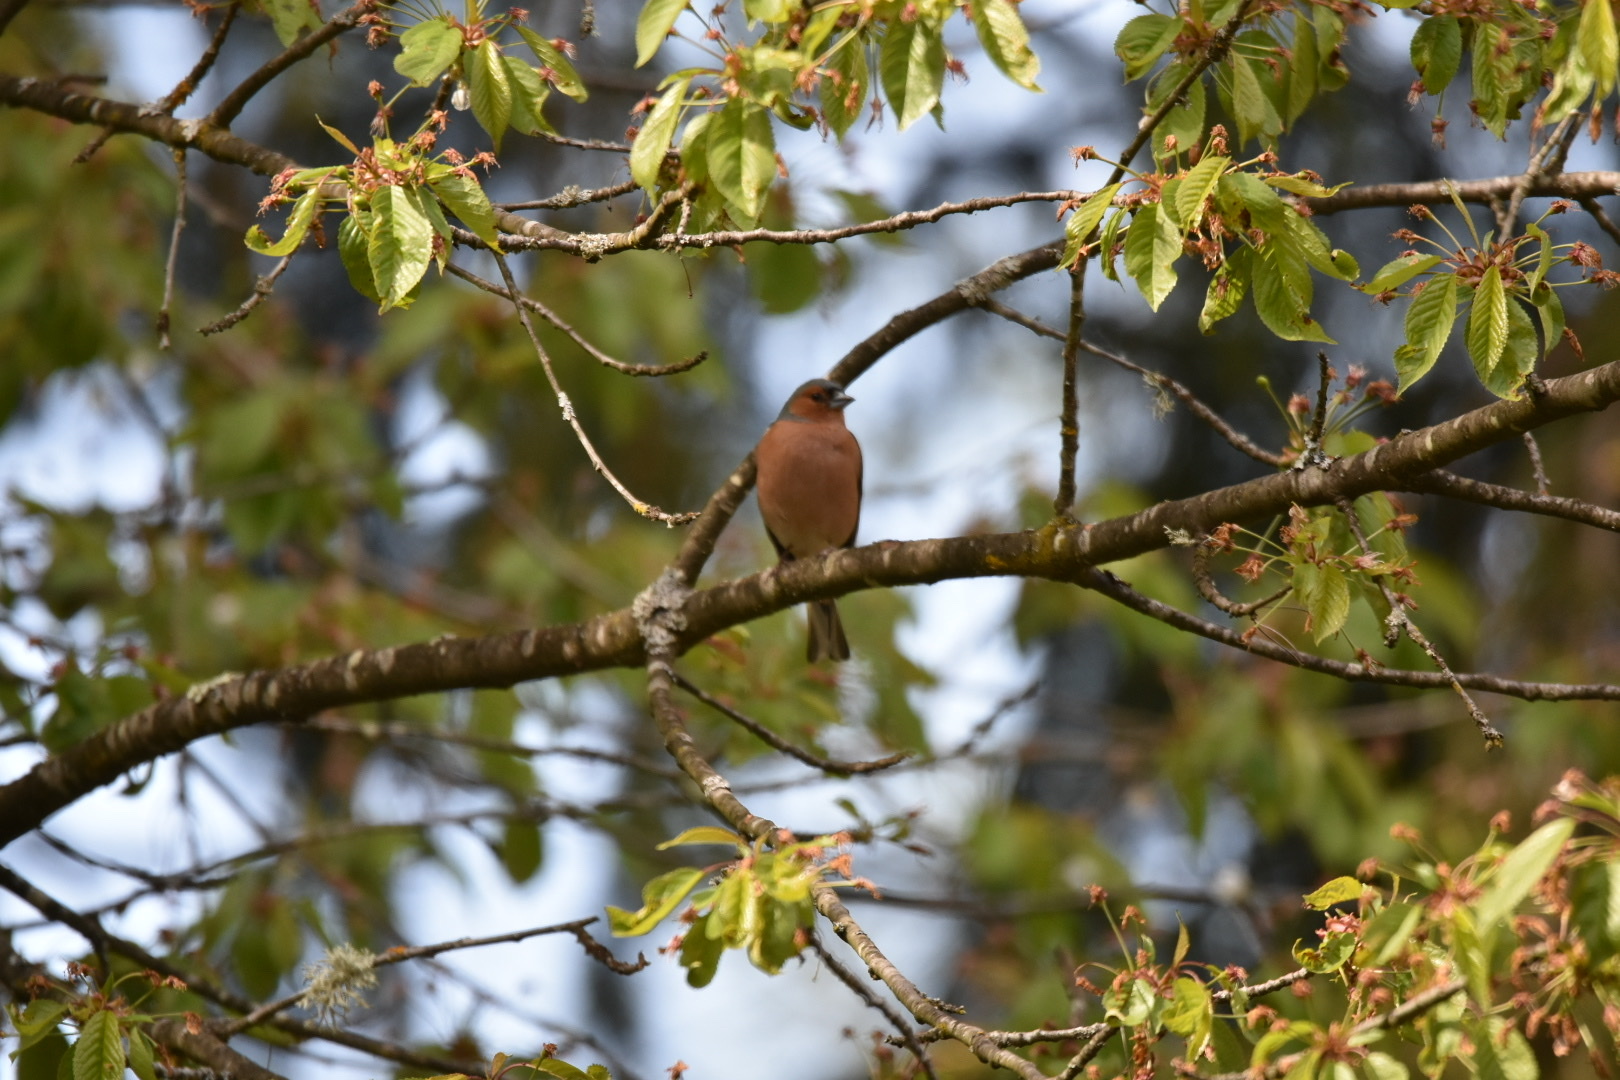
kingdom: Animalia
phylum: Chordata
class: Aves
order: Passeriformes
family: Fringillidae
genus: Fringilla
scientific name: Fringilla coelebs
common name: Common chaffinch
